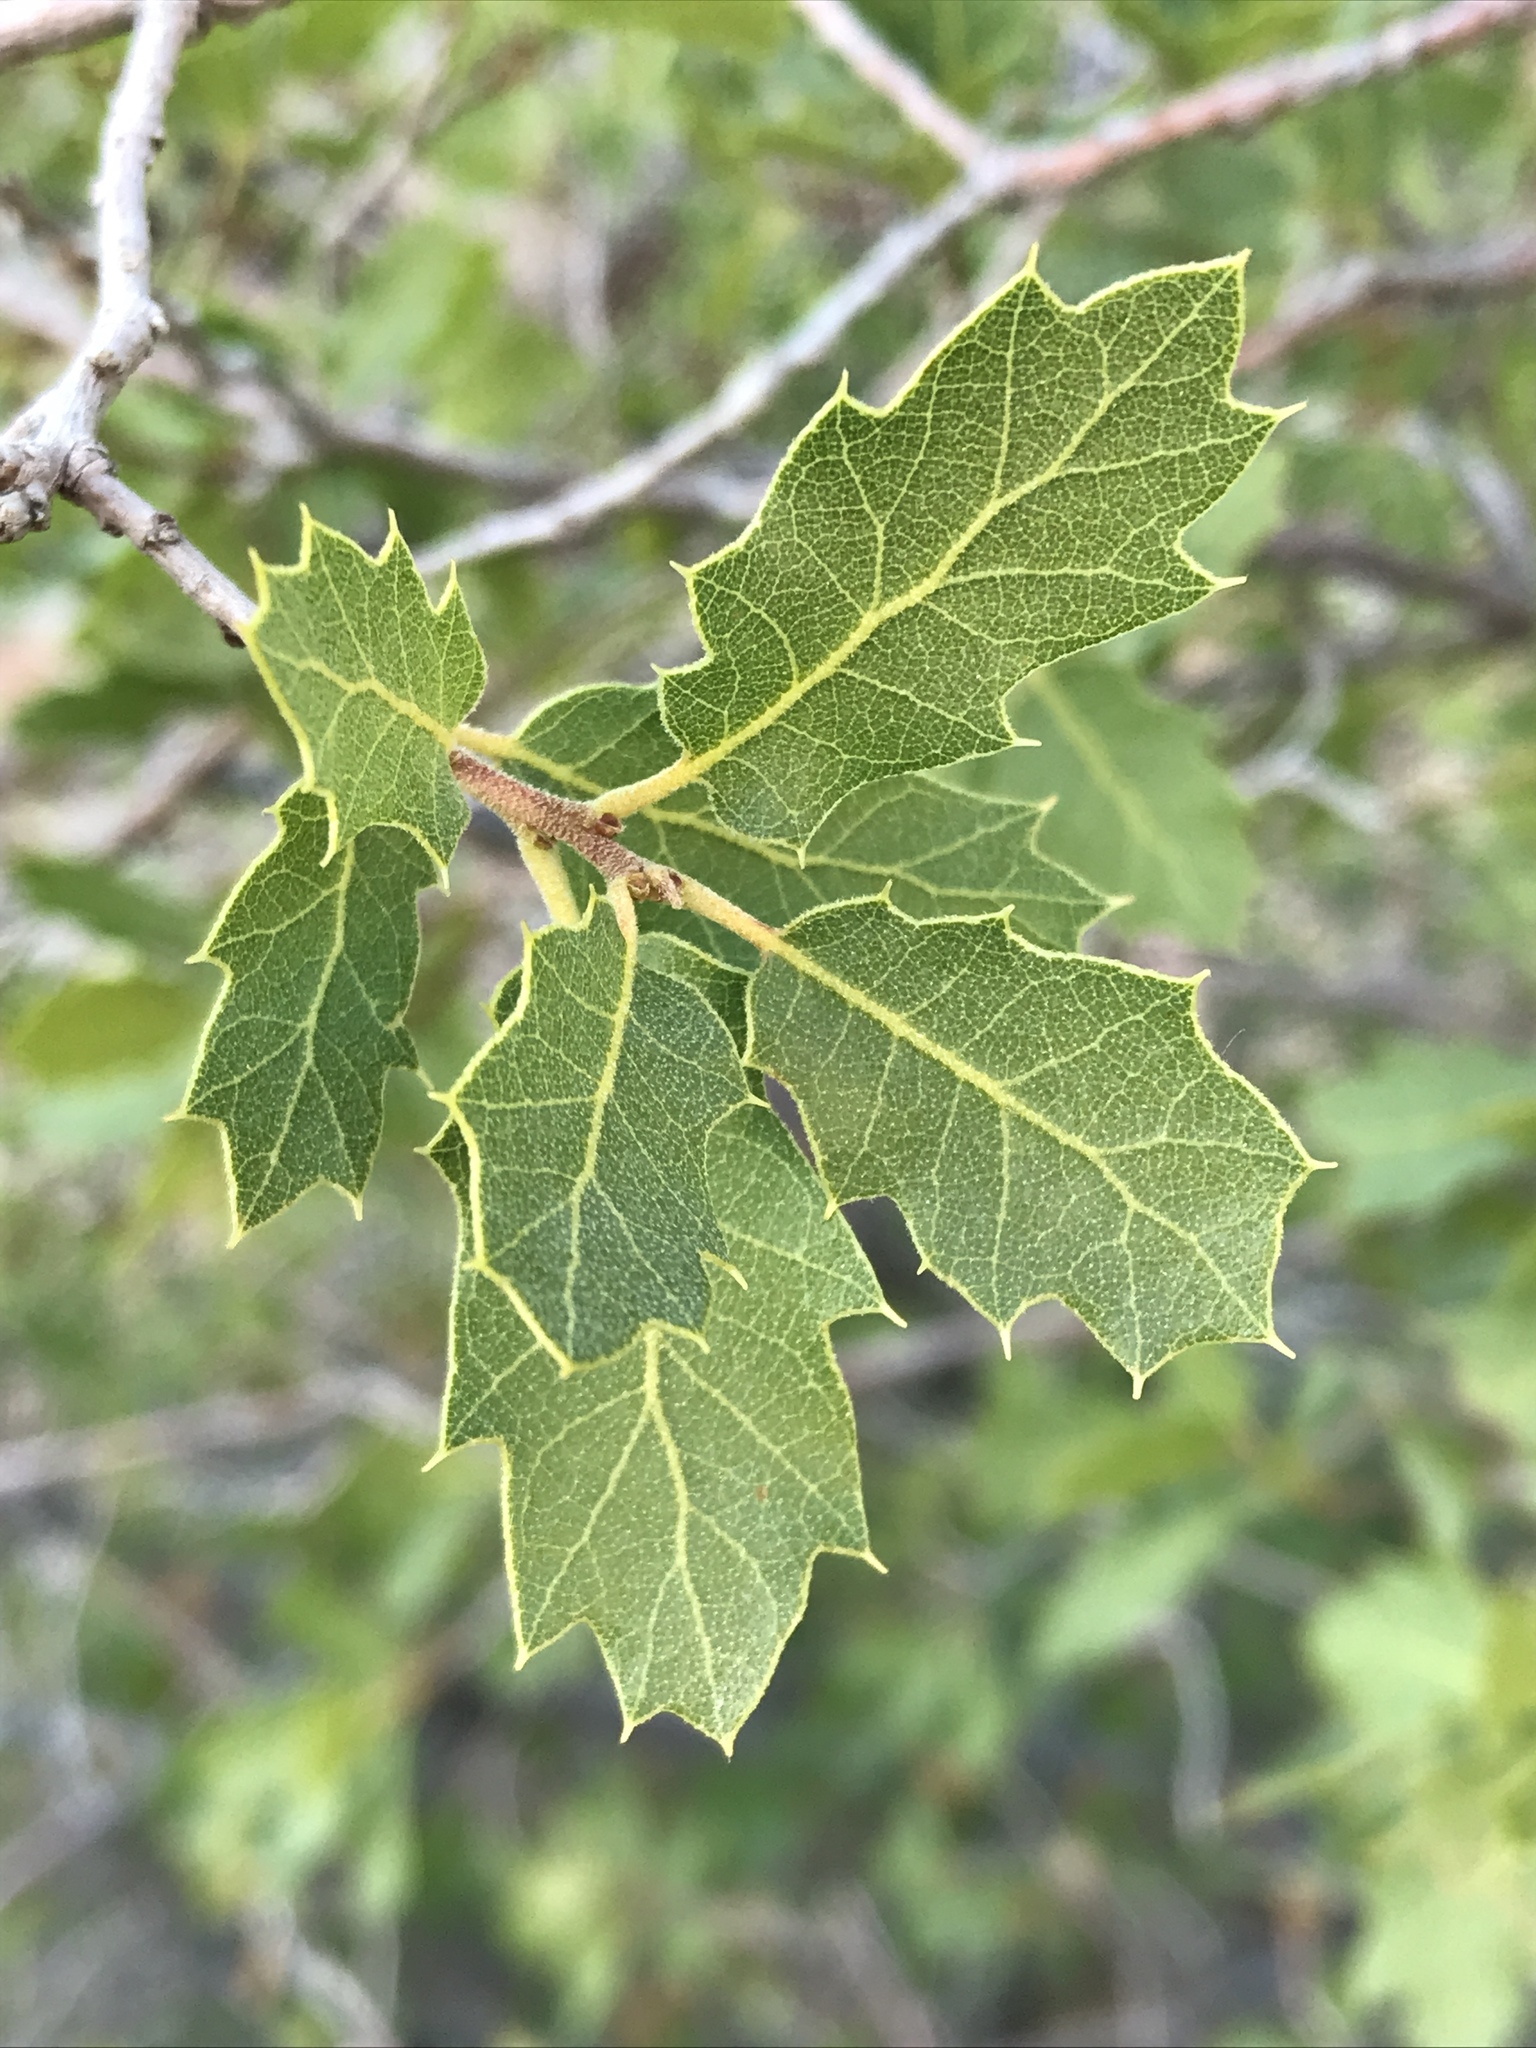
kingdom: Plantae
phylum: Tracheophyta
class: Magnoliopsida
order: Fagales
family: Fagaceae
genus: Quercus
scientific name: Quercus turbinella
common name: Sonoran scrub oak
